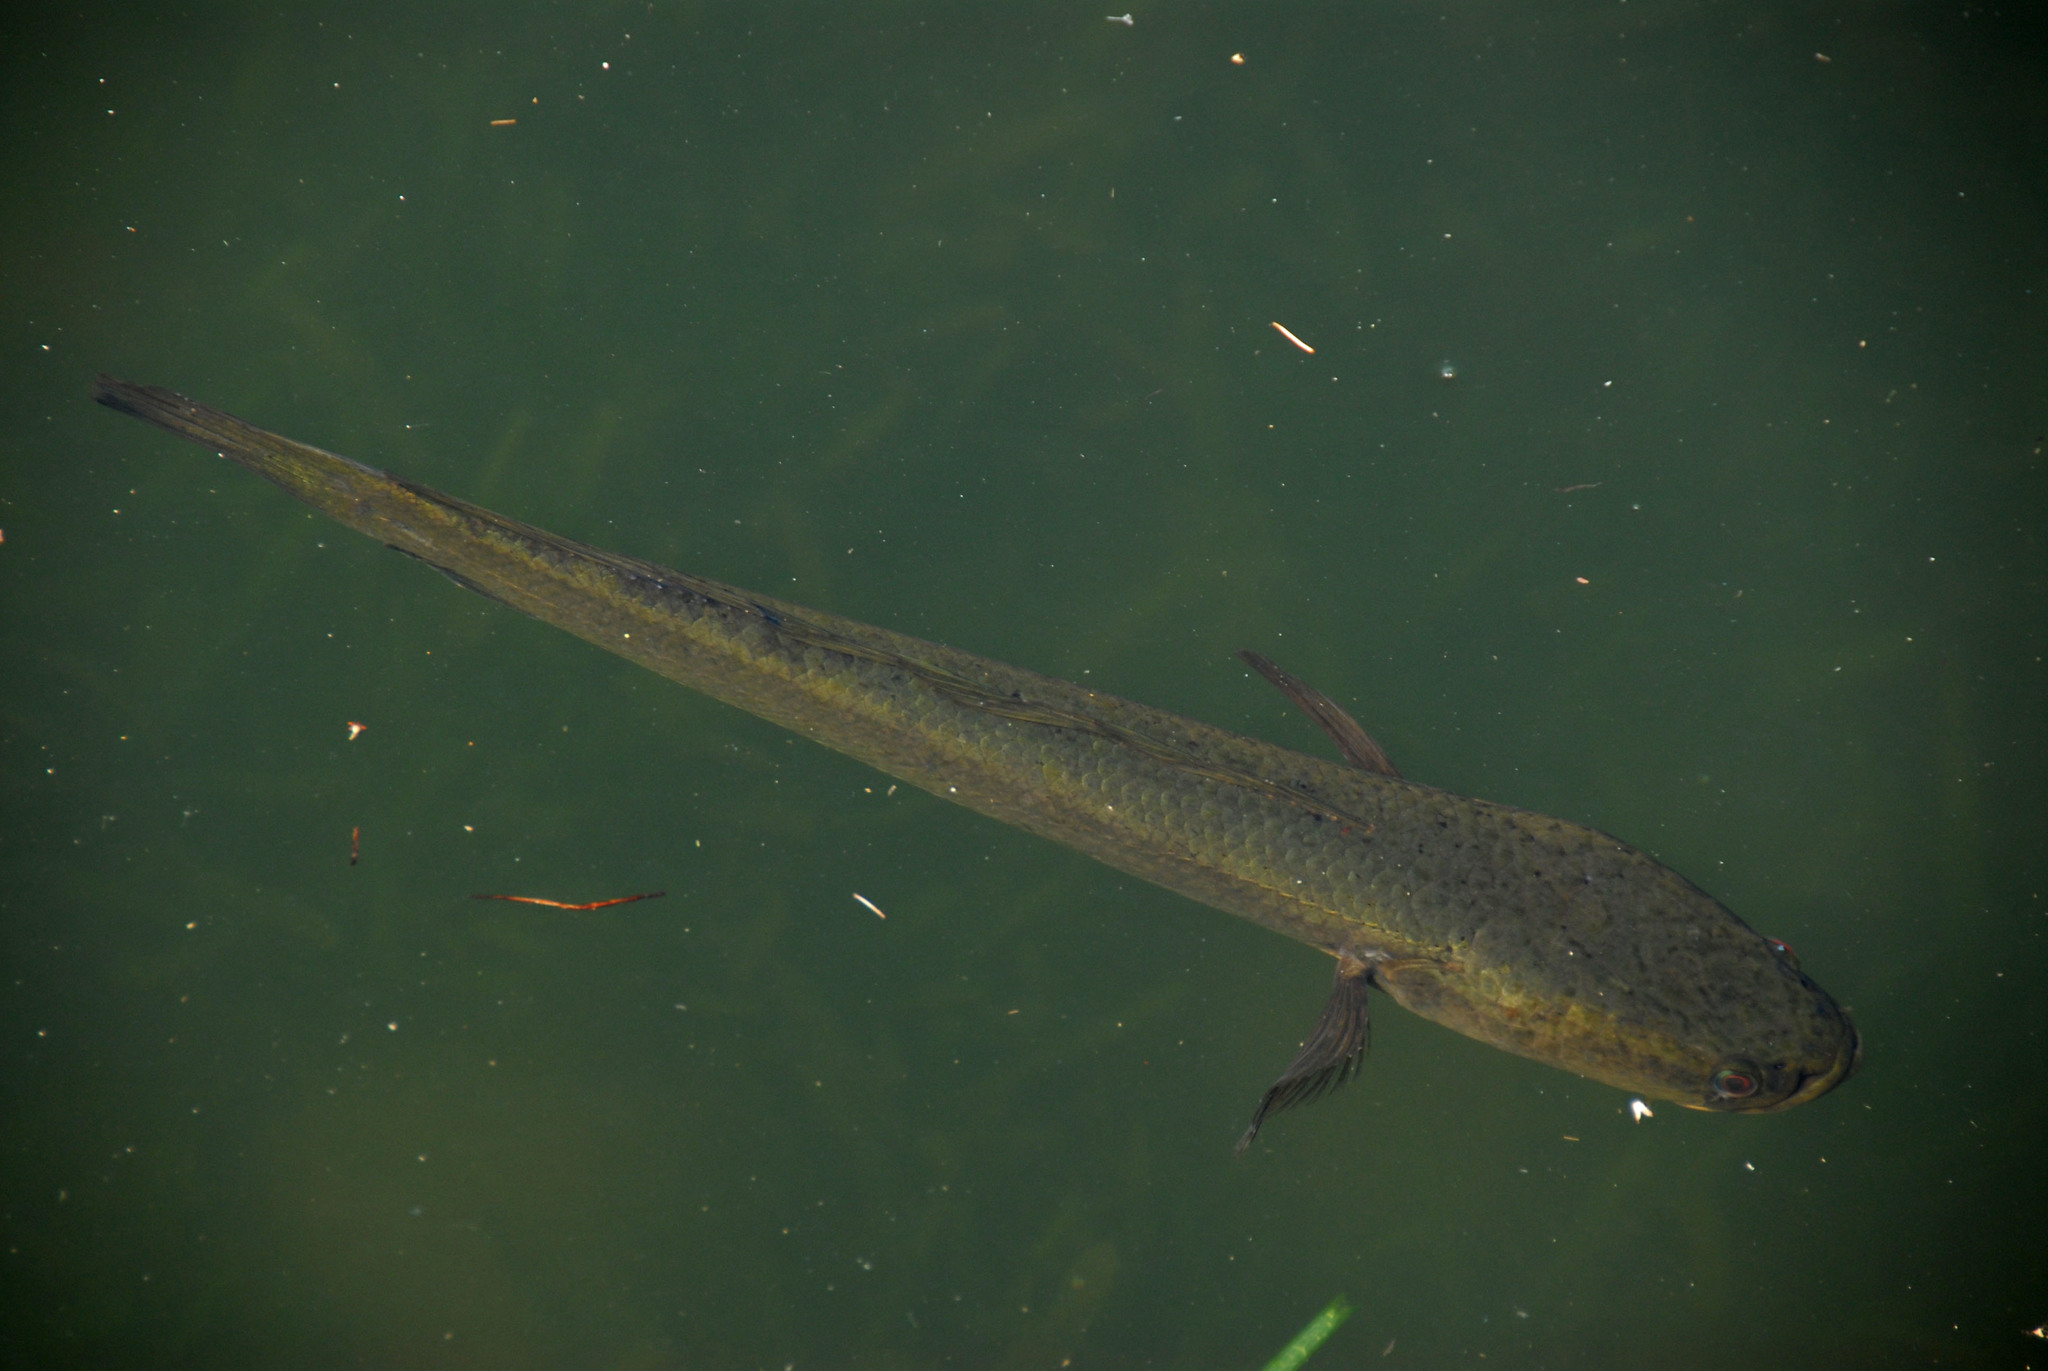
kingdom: Animalia
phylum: Chordata
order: Perciformes
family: Channidae
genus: Channa
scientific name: Channa striata
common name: Striped snakehead
